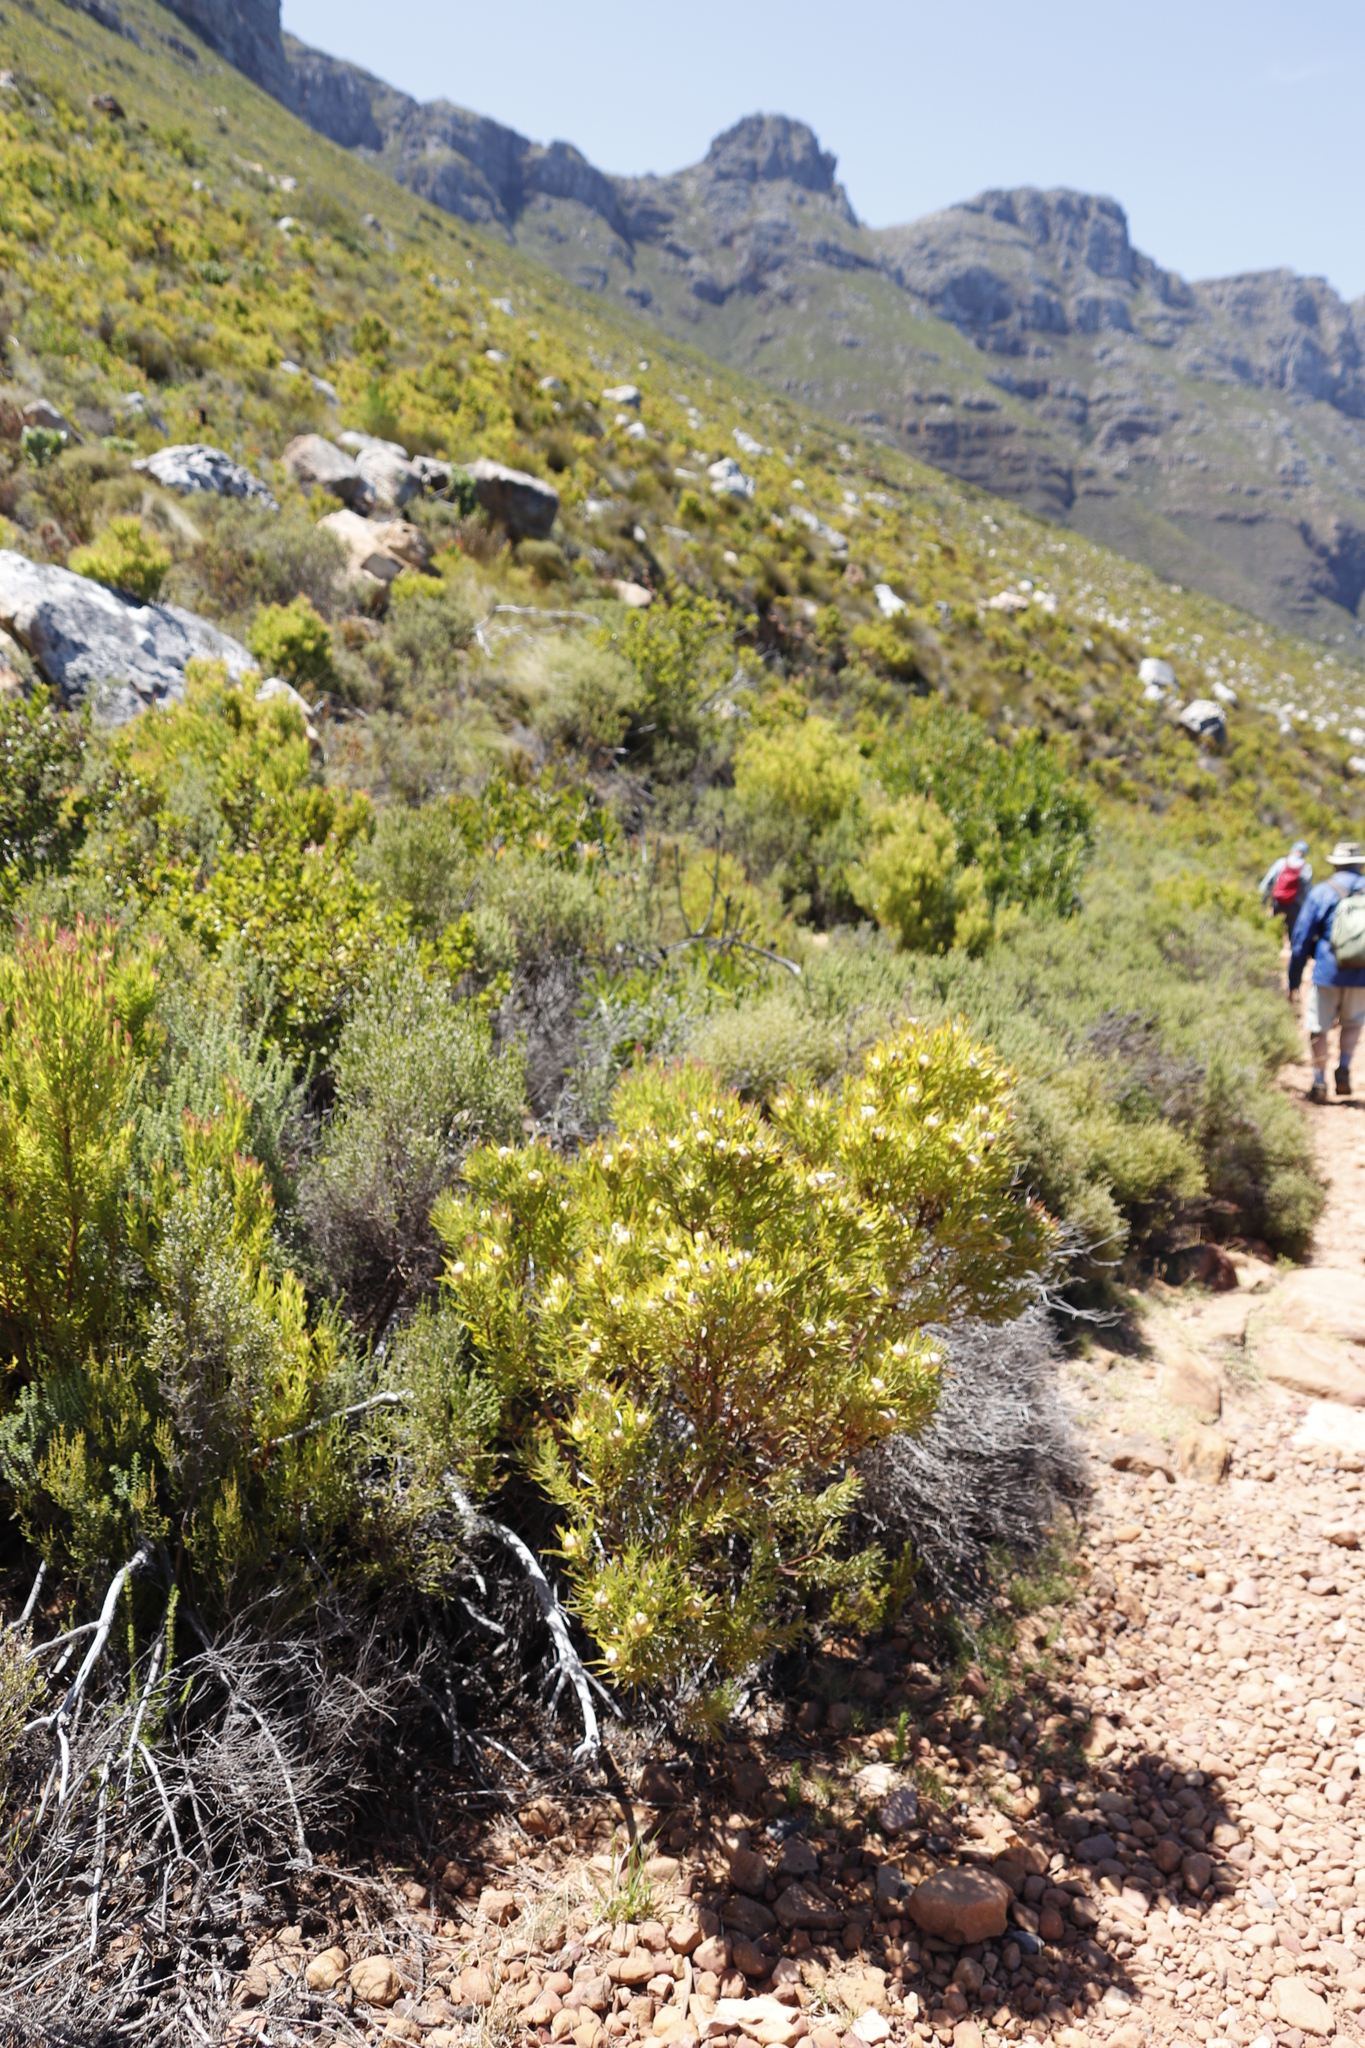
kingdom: Plantae
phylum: Tracheophyta
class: Magnoliopsida
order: Proteales
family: Proteaceae
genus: Leucadendron
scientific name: Leucadendron xanthoconus
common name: Sickle-leaf conebush
